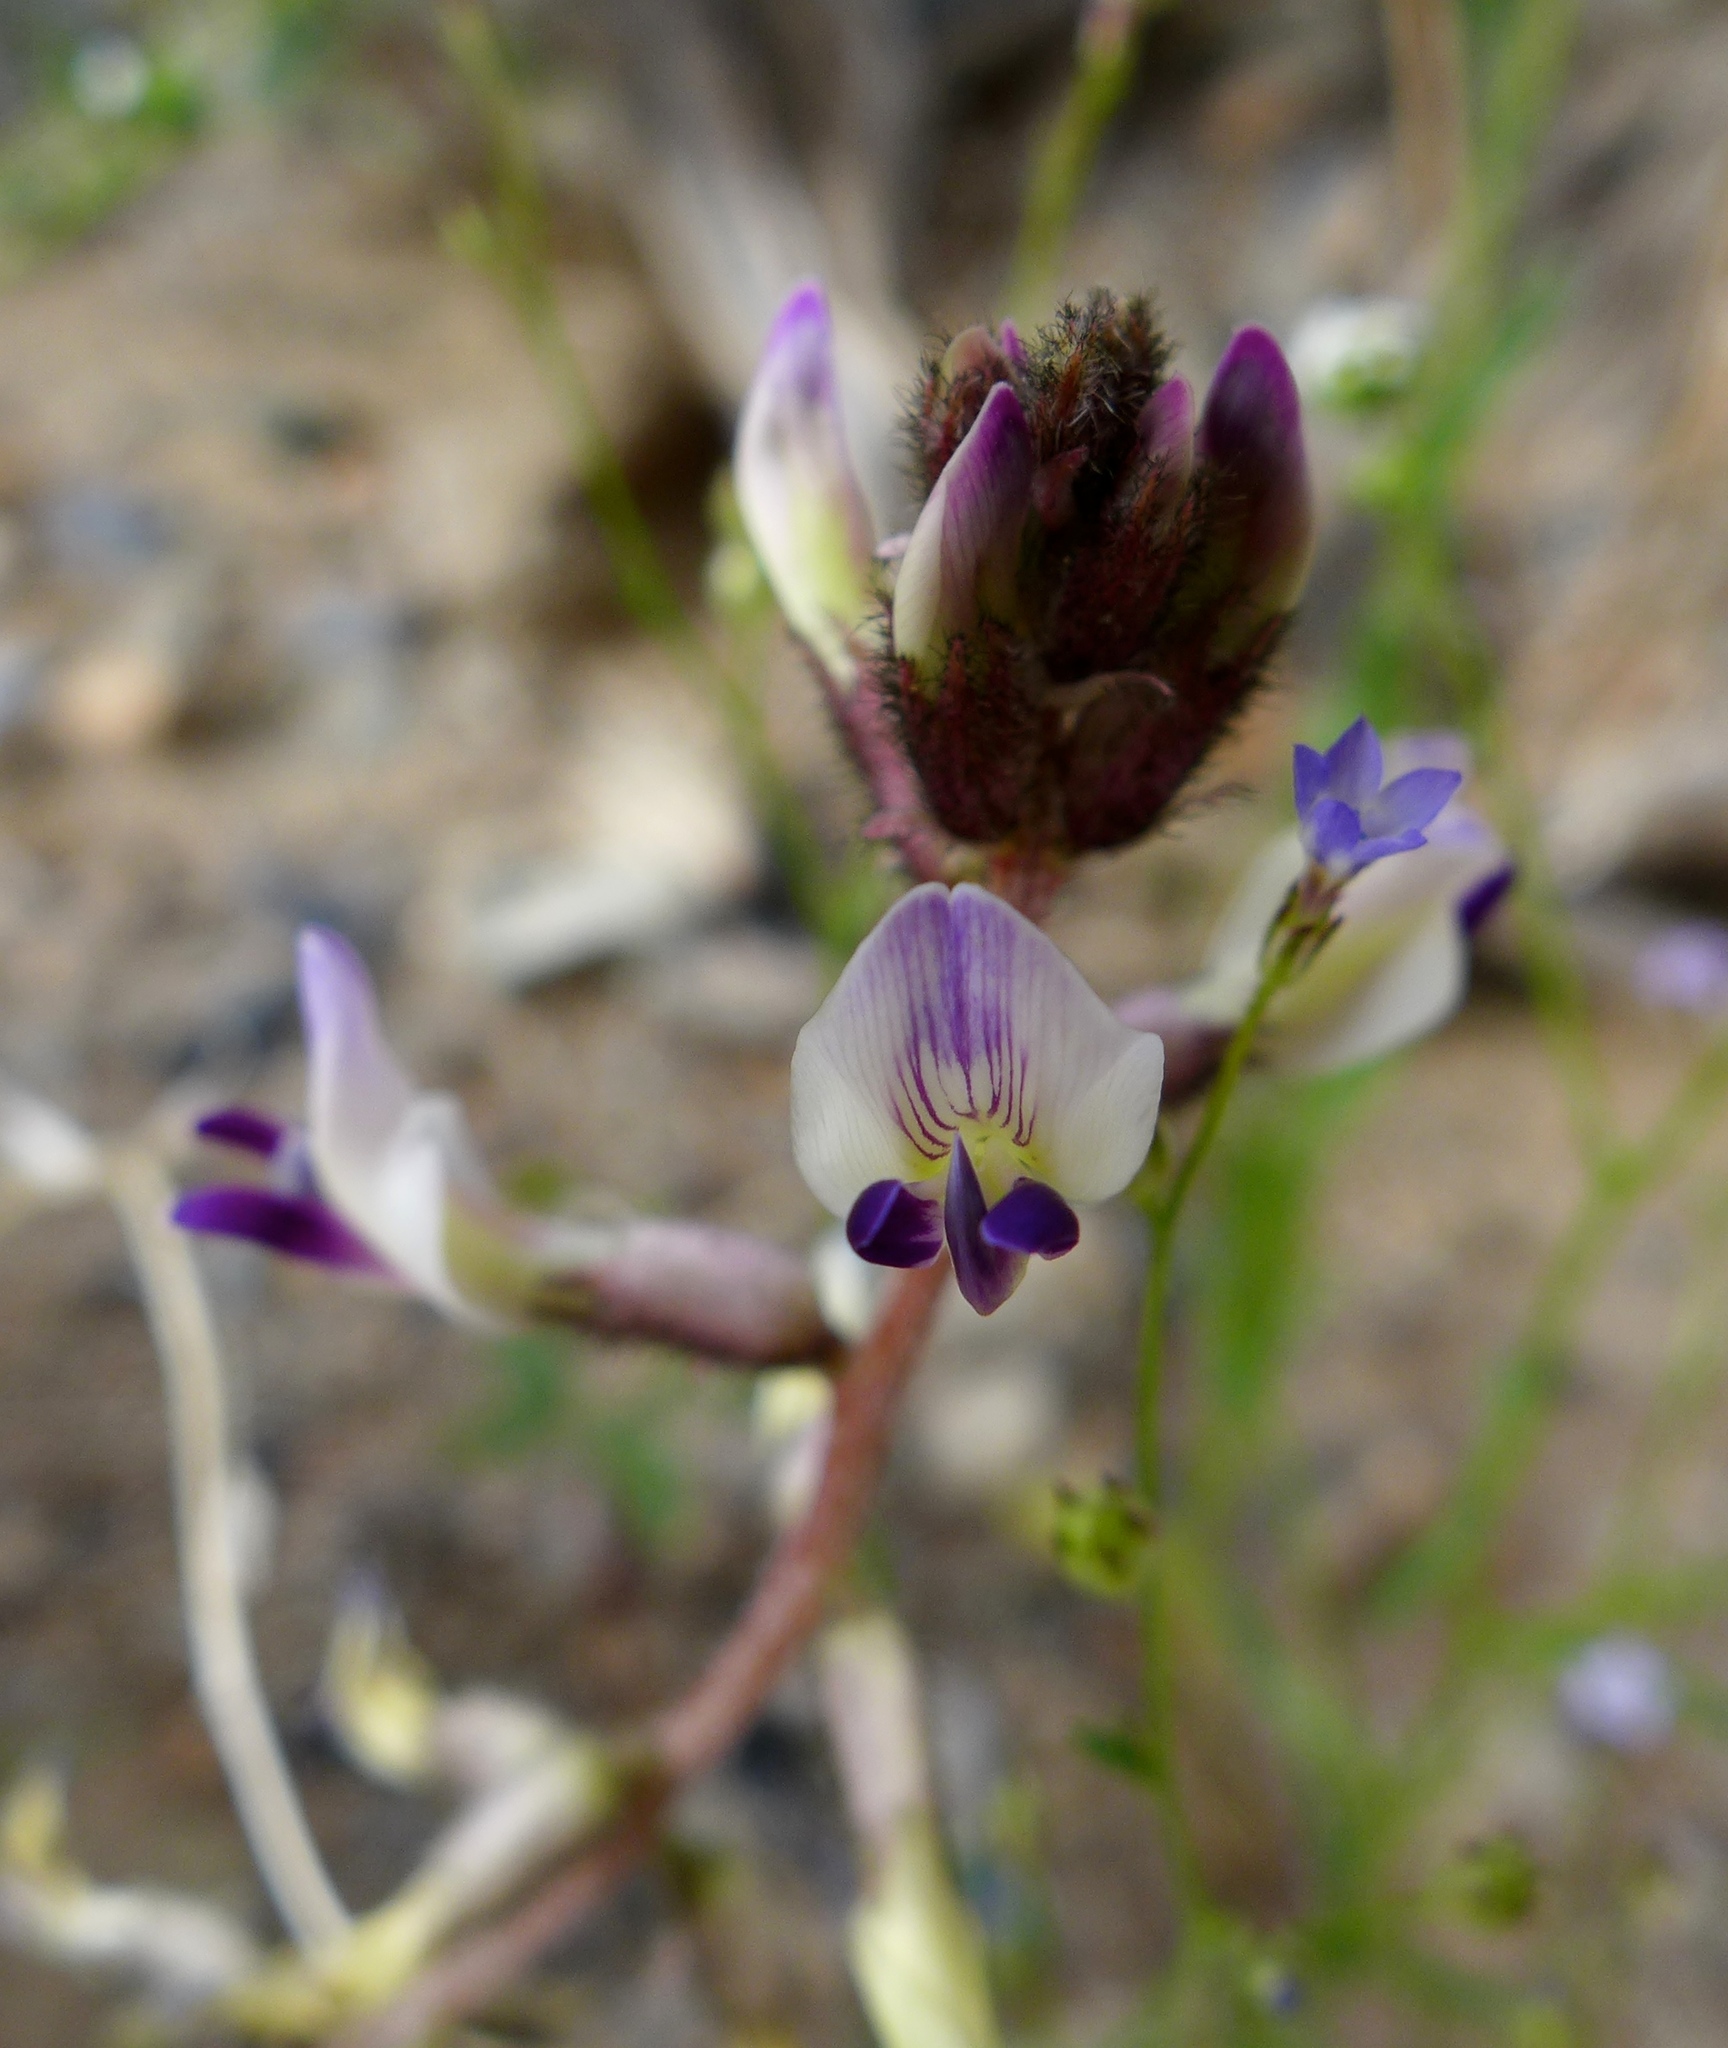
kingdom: Plantae
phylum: Tracheophyta
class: Magnoliopsida
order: Fabales
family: Fabaceae
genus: Astragalus
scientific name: Astragalus layneae
